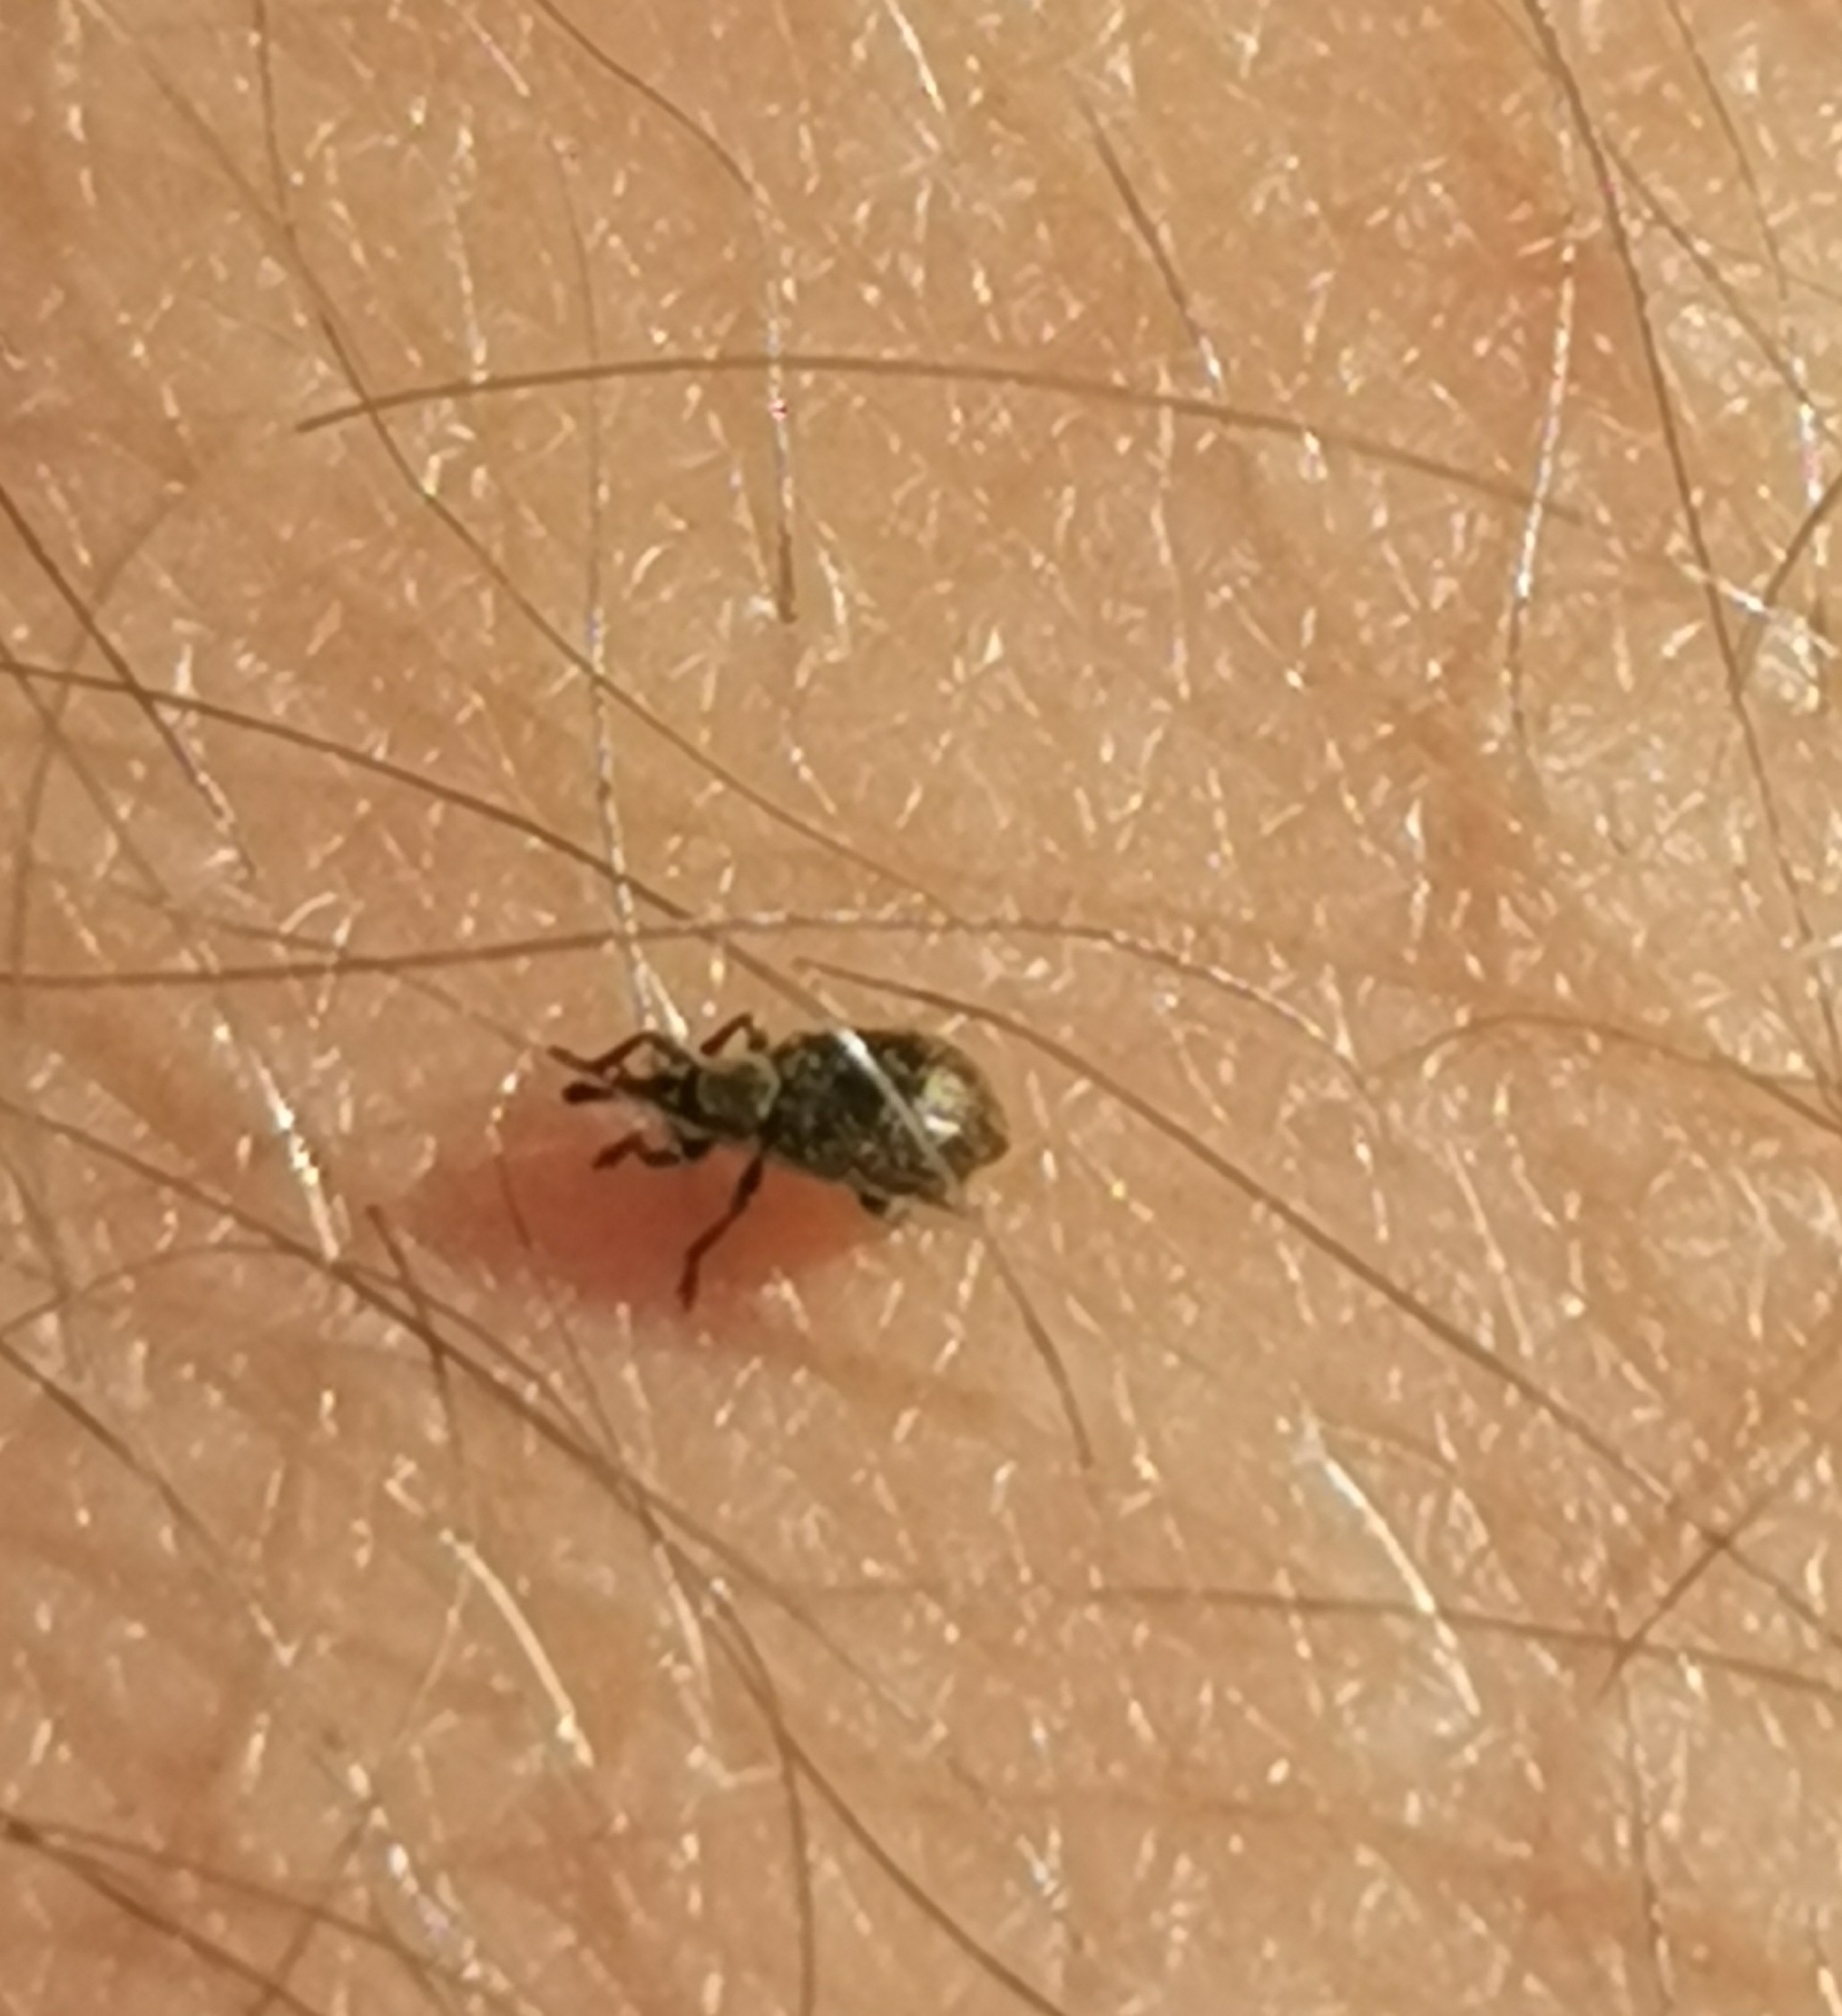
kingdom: Animalia
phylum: Arthropoda
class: Insecta
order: Coleoptera
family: Apionidae
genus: Trichopterapion
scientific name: Trichopterapion holosericeum
